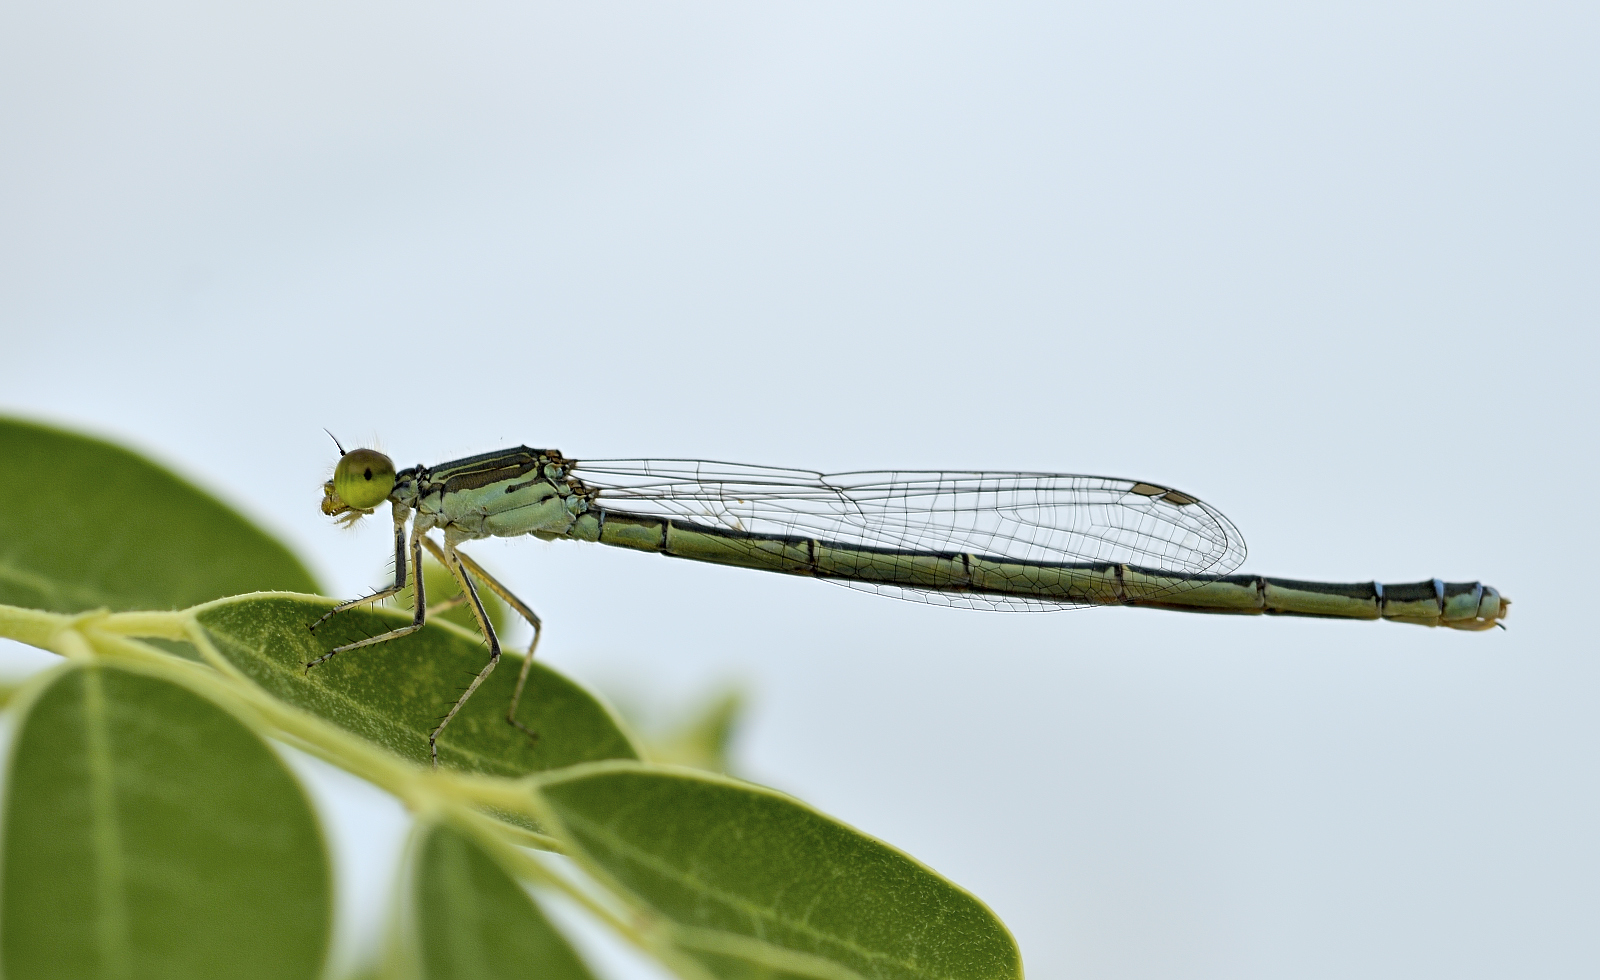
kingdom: Animalia
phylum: Arthropoda
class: Insecta
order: Odonata
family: Coenagrionidae
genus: Paracercion
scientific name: Paracercion calamorum
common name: Dusky lilysquatter
